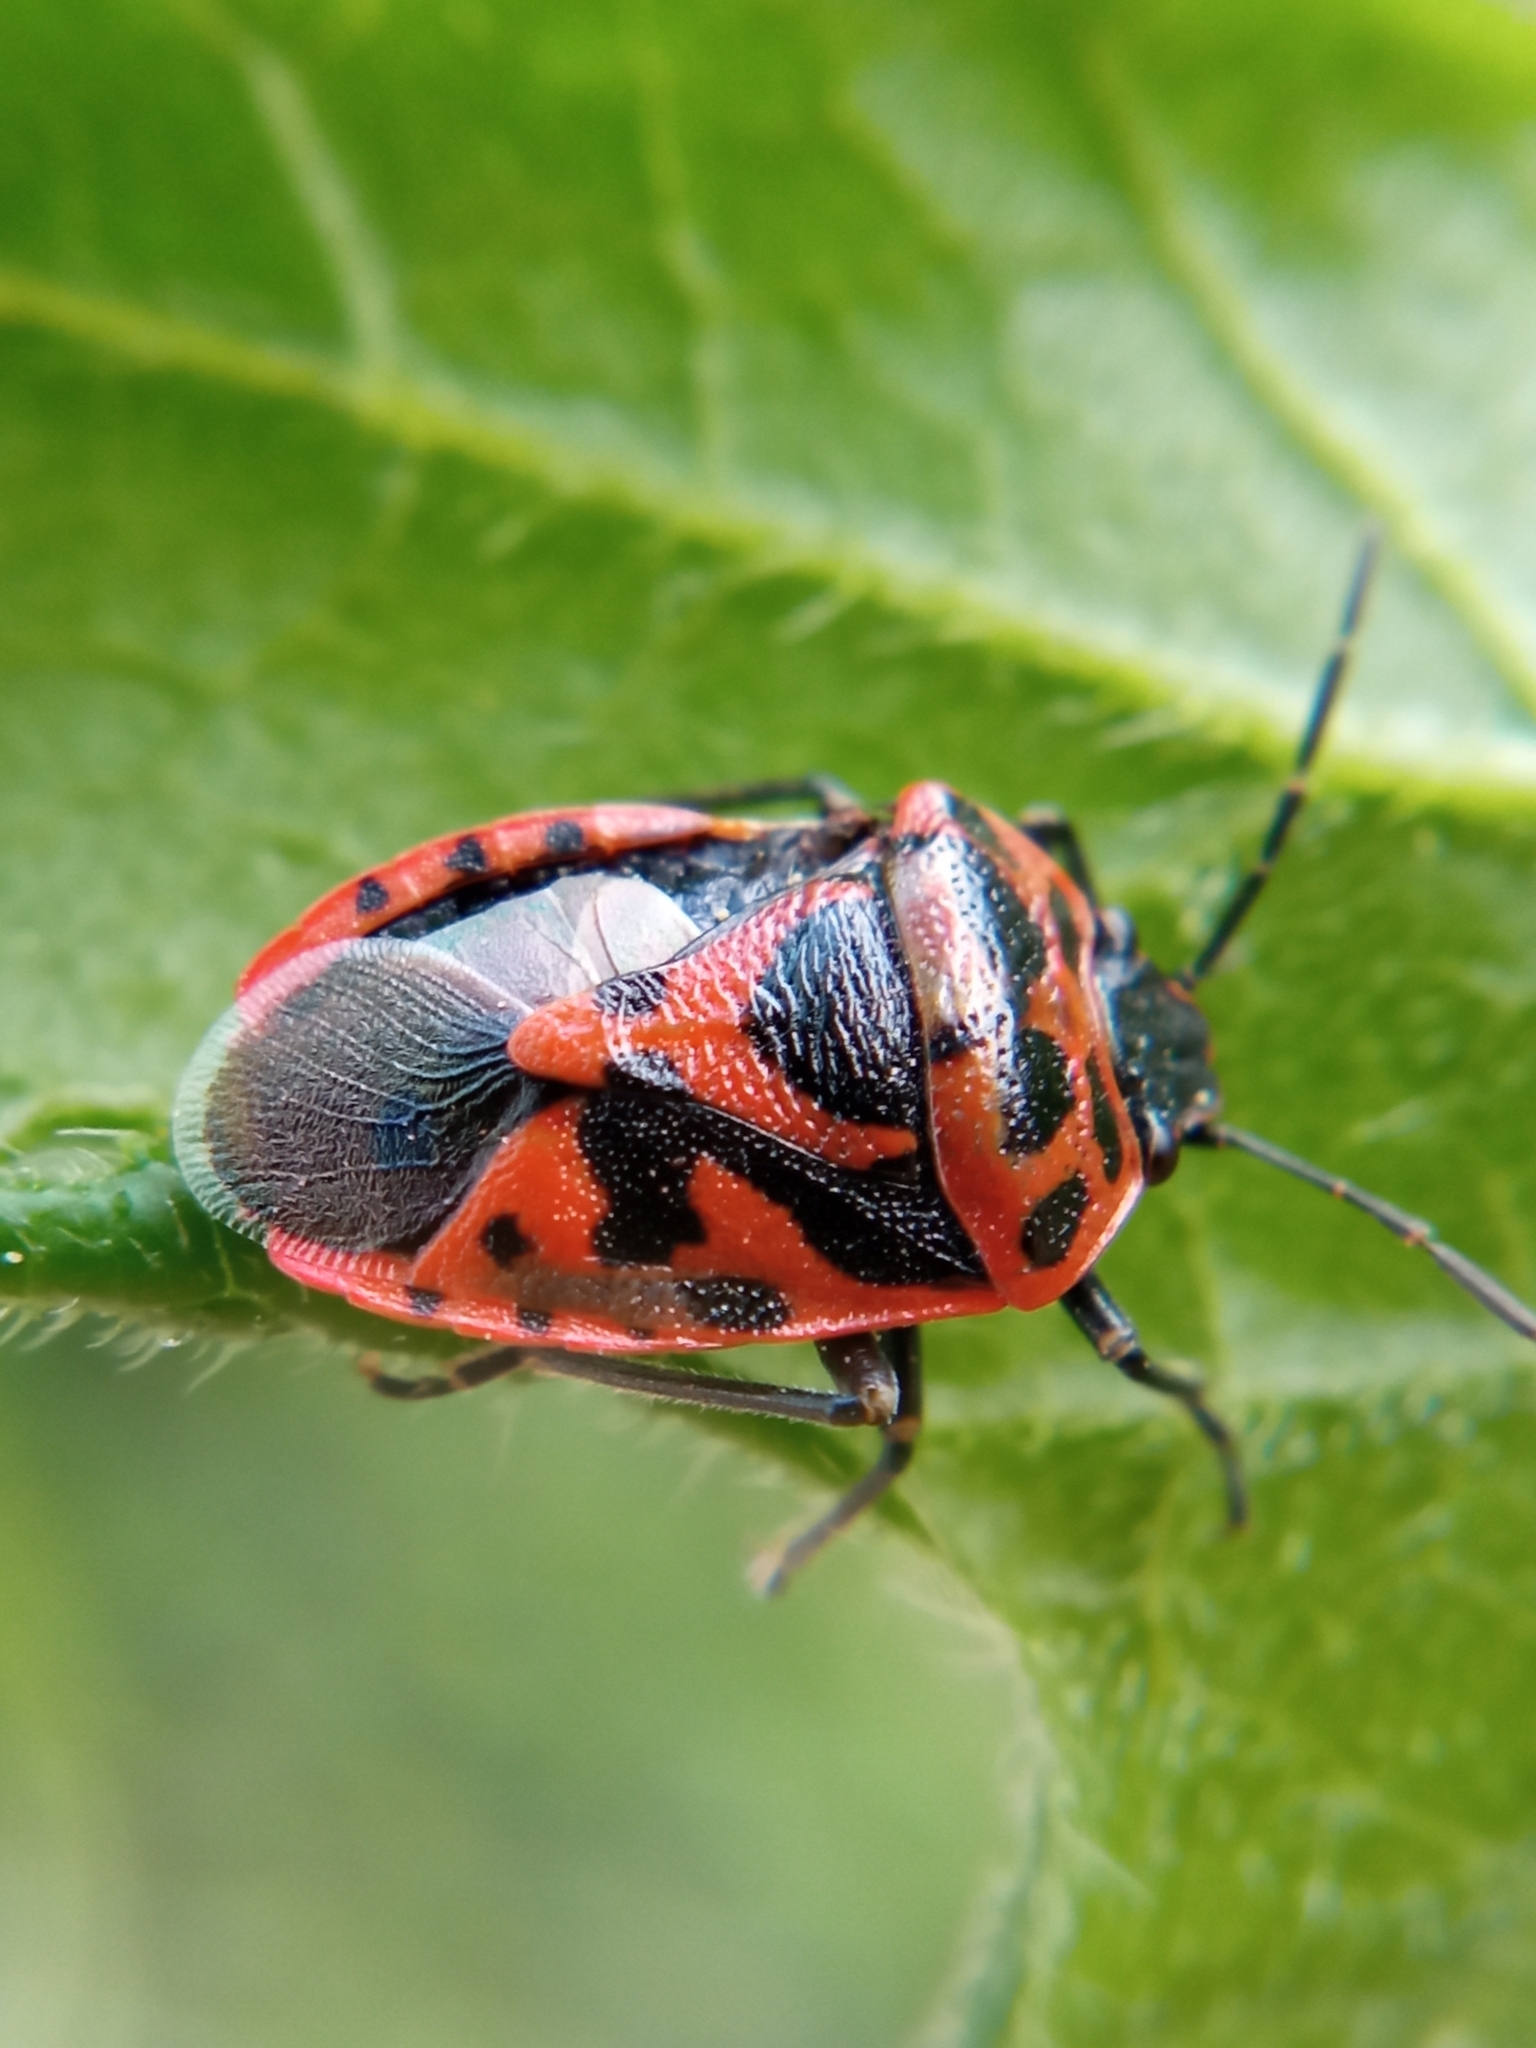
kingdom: Animalia
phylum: Arthropoda
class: Insecta
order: Hemiptera
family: Pentatomidae
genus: Eurydema
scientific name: Eurydema ornata
